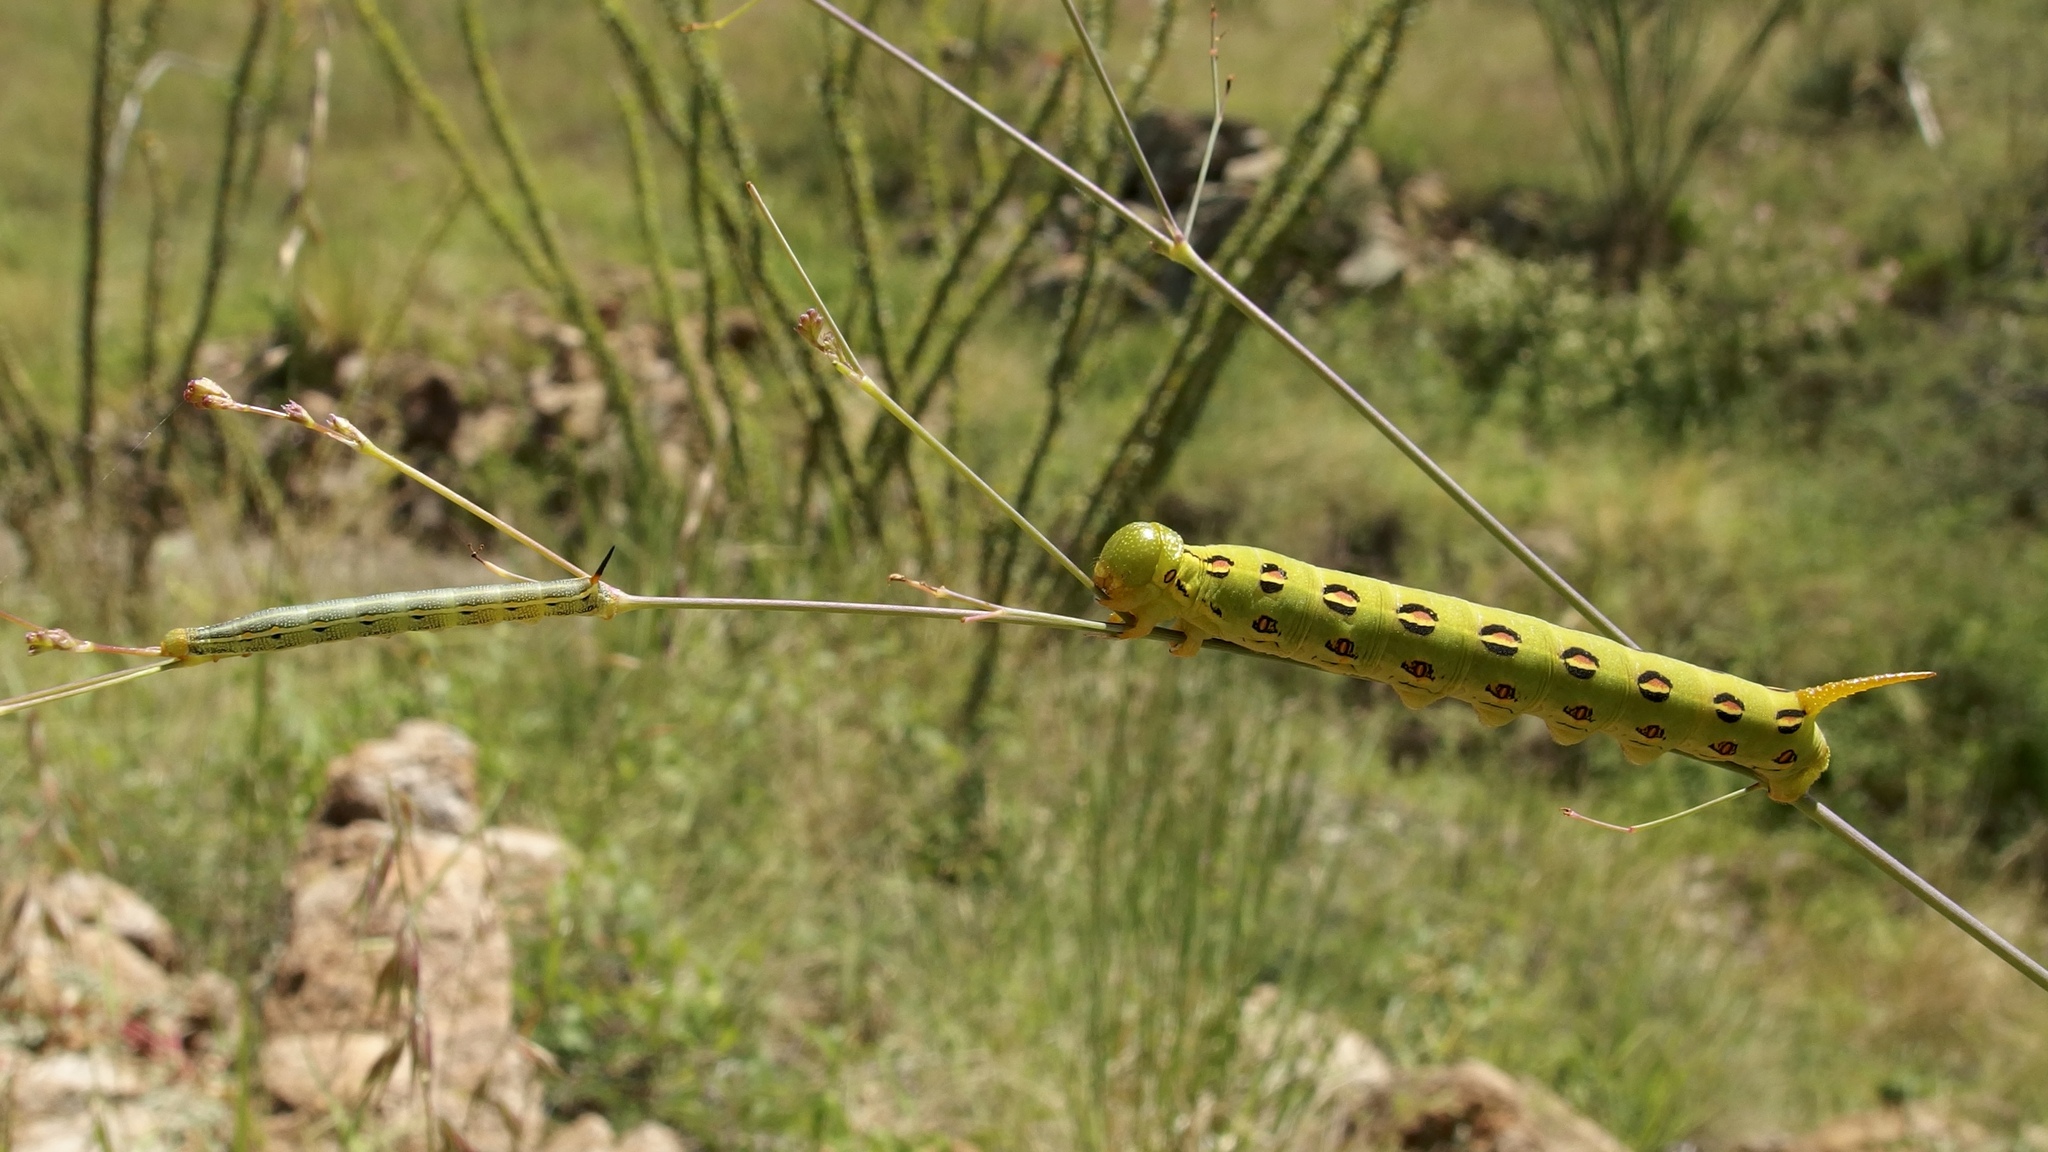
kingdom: Animalia
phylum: Arthropoda
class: Insecta
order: Lepidoptera
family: Sphingidae
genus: Hyles
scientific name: Hyles lineata
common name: White-lined sphinx
